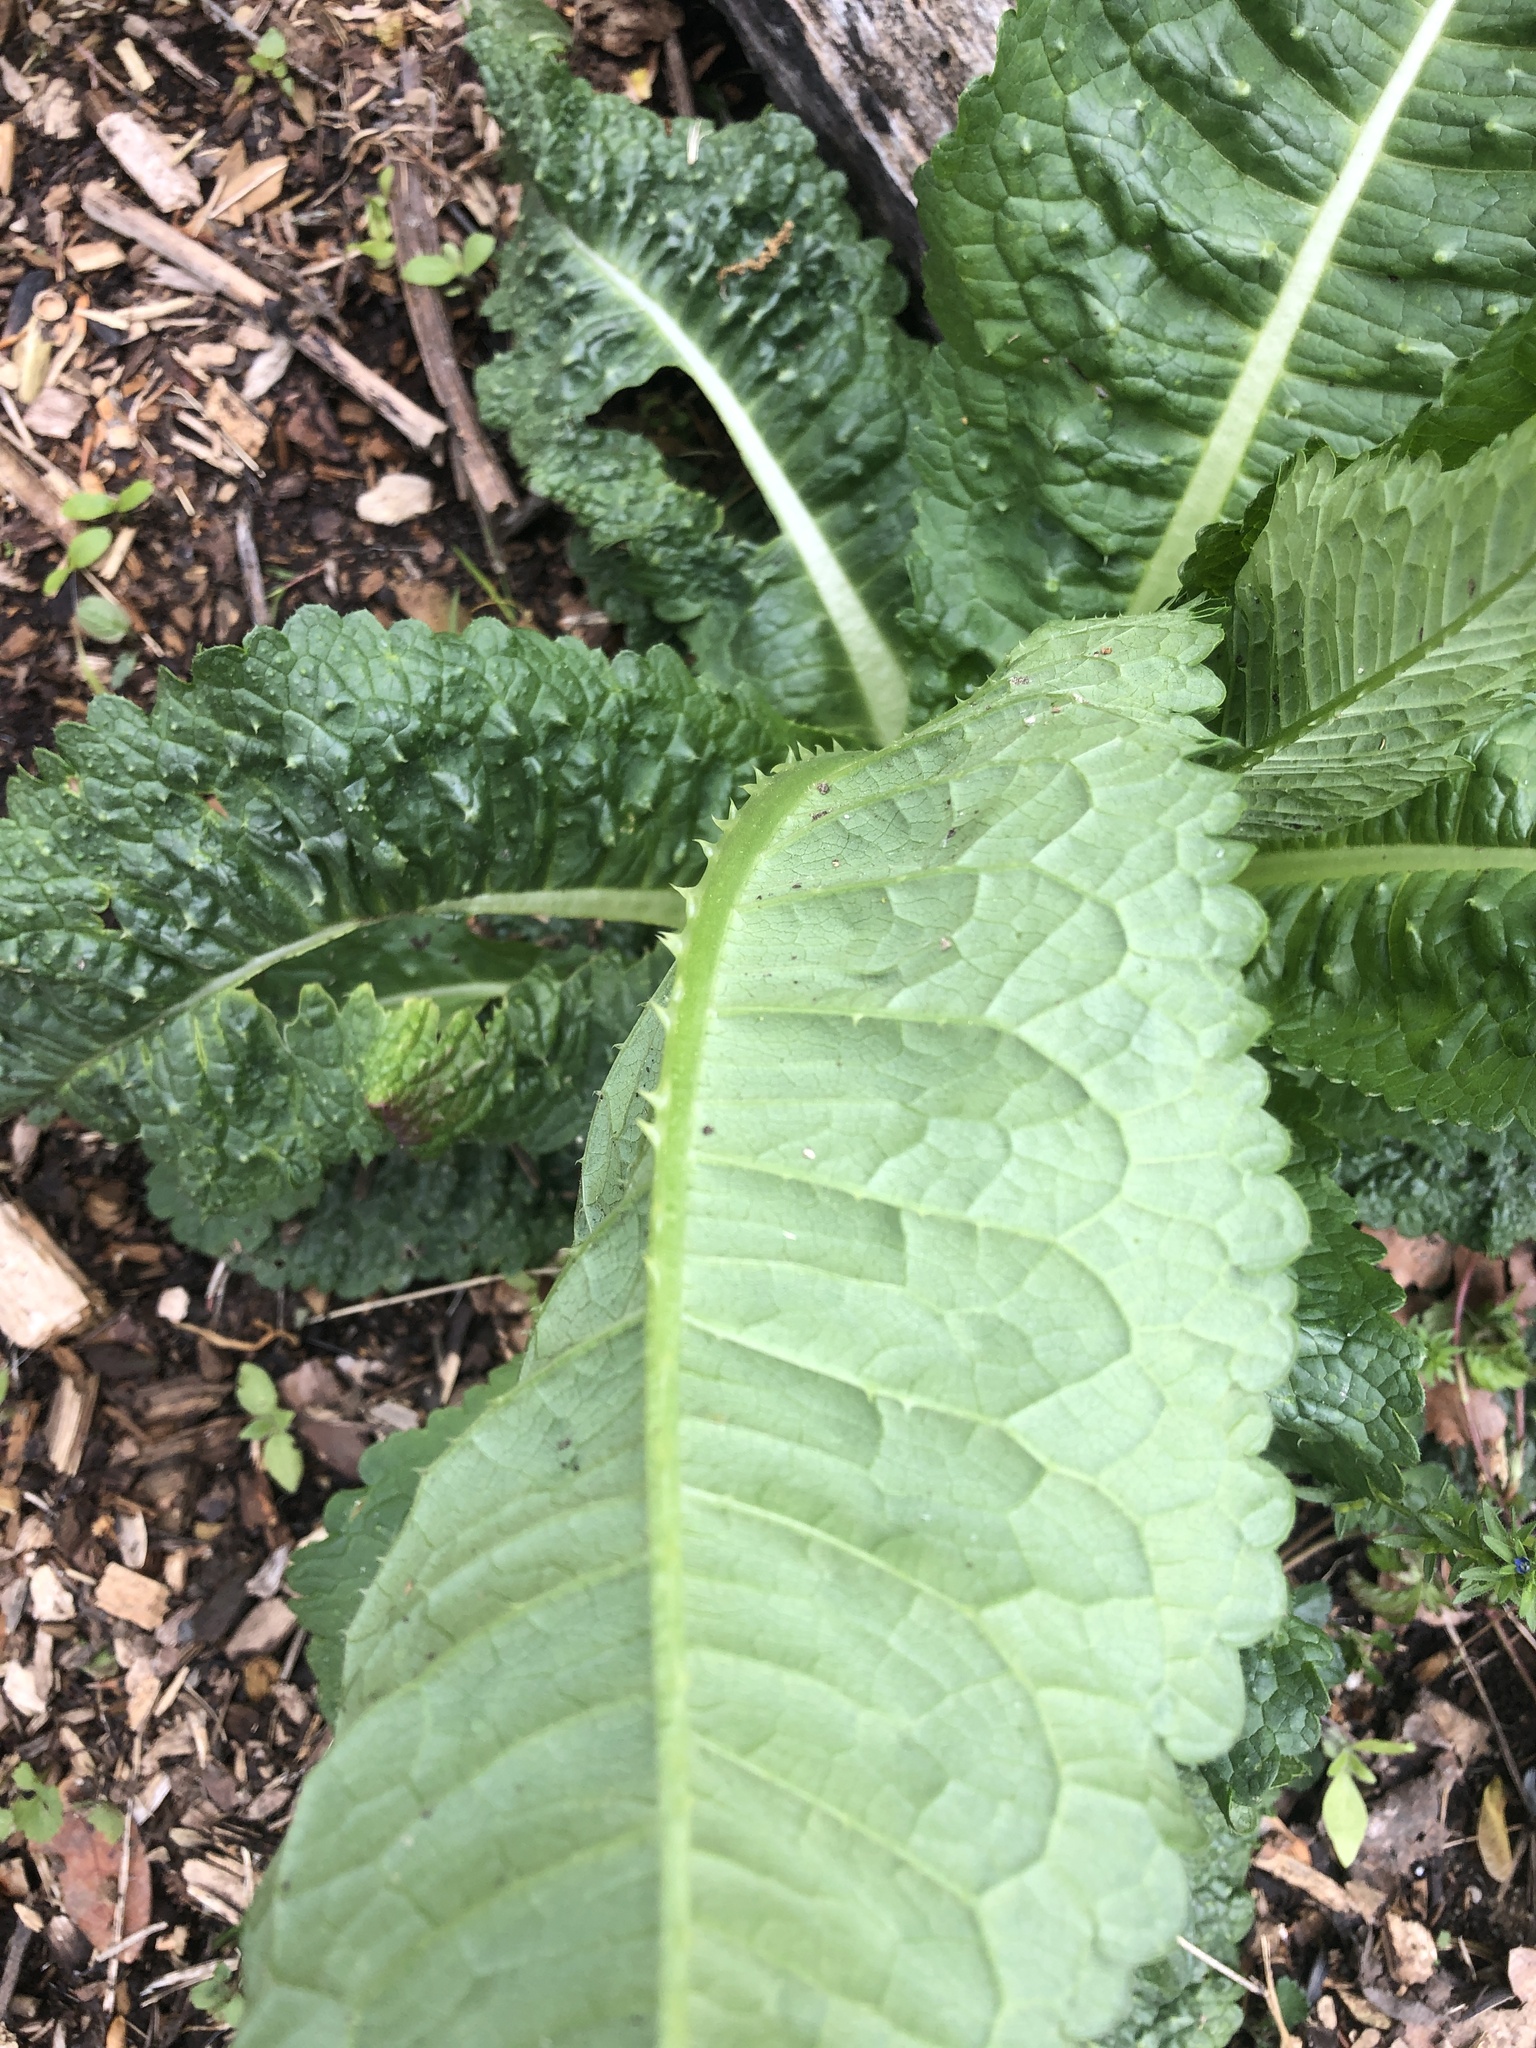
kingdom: Plantae
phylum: Tracheophyta
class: Magnoliopsida
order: Dipsacales
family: Caprifoliaceae
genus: Dipsacus
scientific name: Dipsacus fullonum
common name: Teasel
